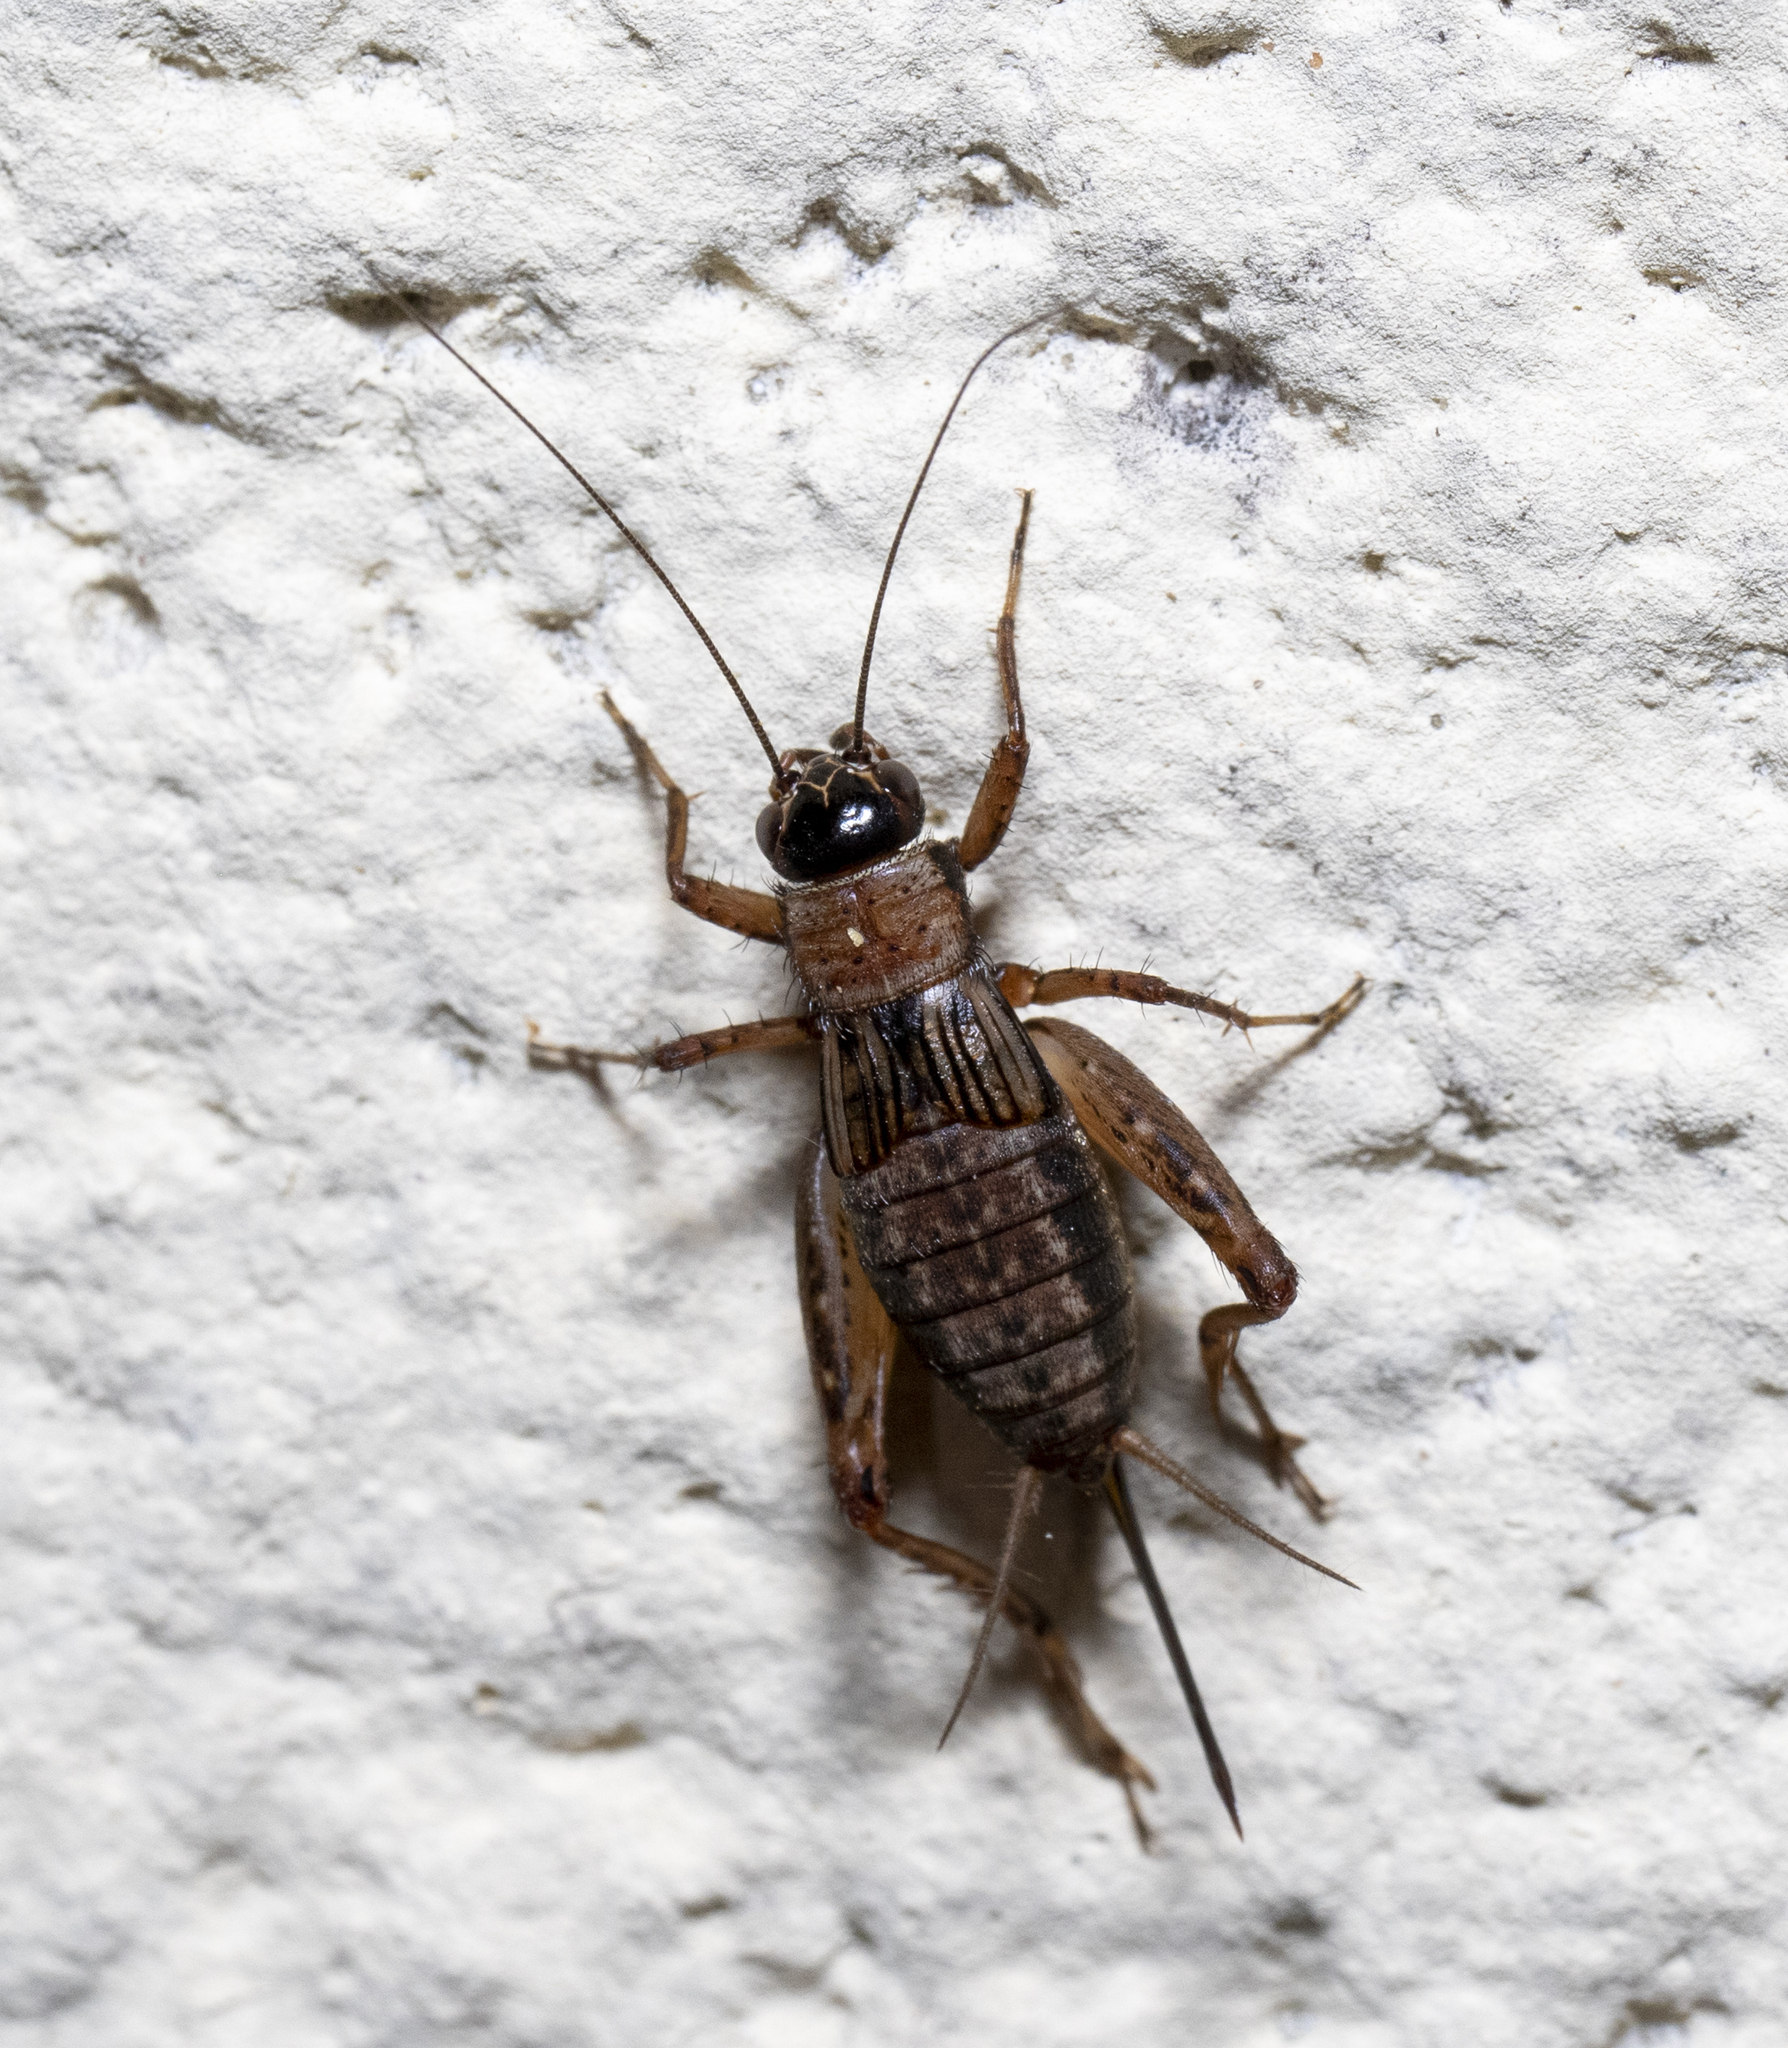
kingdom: Animalia
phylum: Arthropoda
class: Insecta
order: Orthoptera
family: Trigonidiidae
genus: Nemobius
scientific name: Nemobius sylvestris
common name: Wood-cricket
